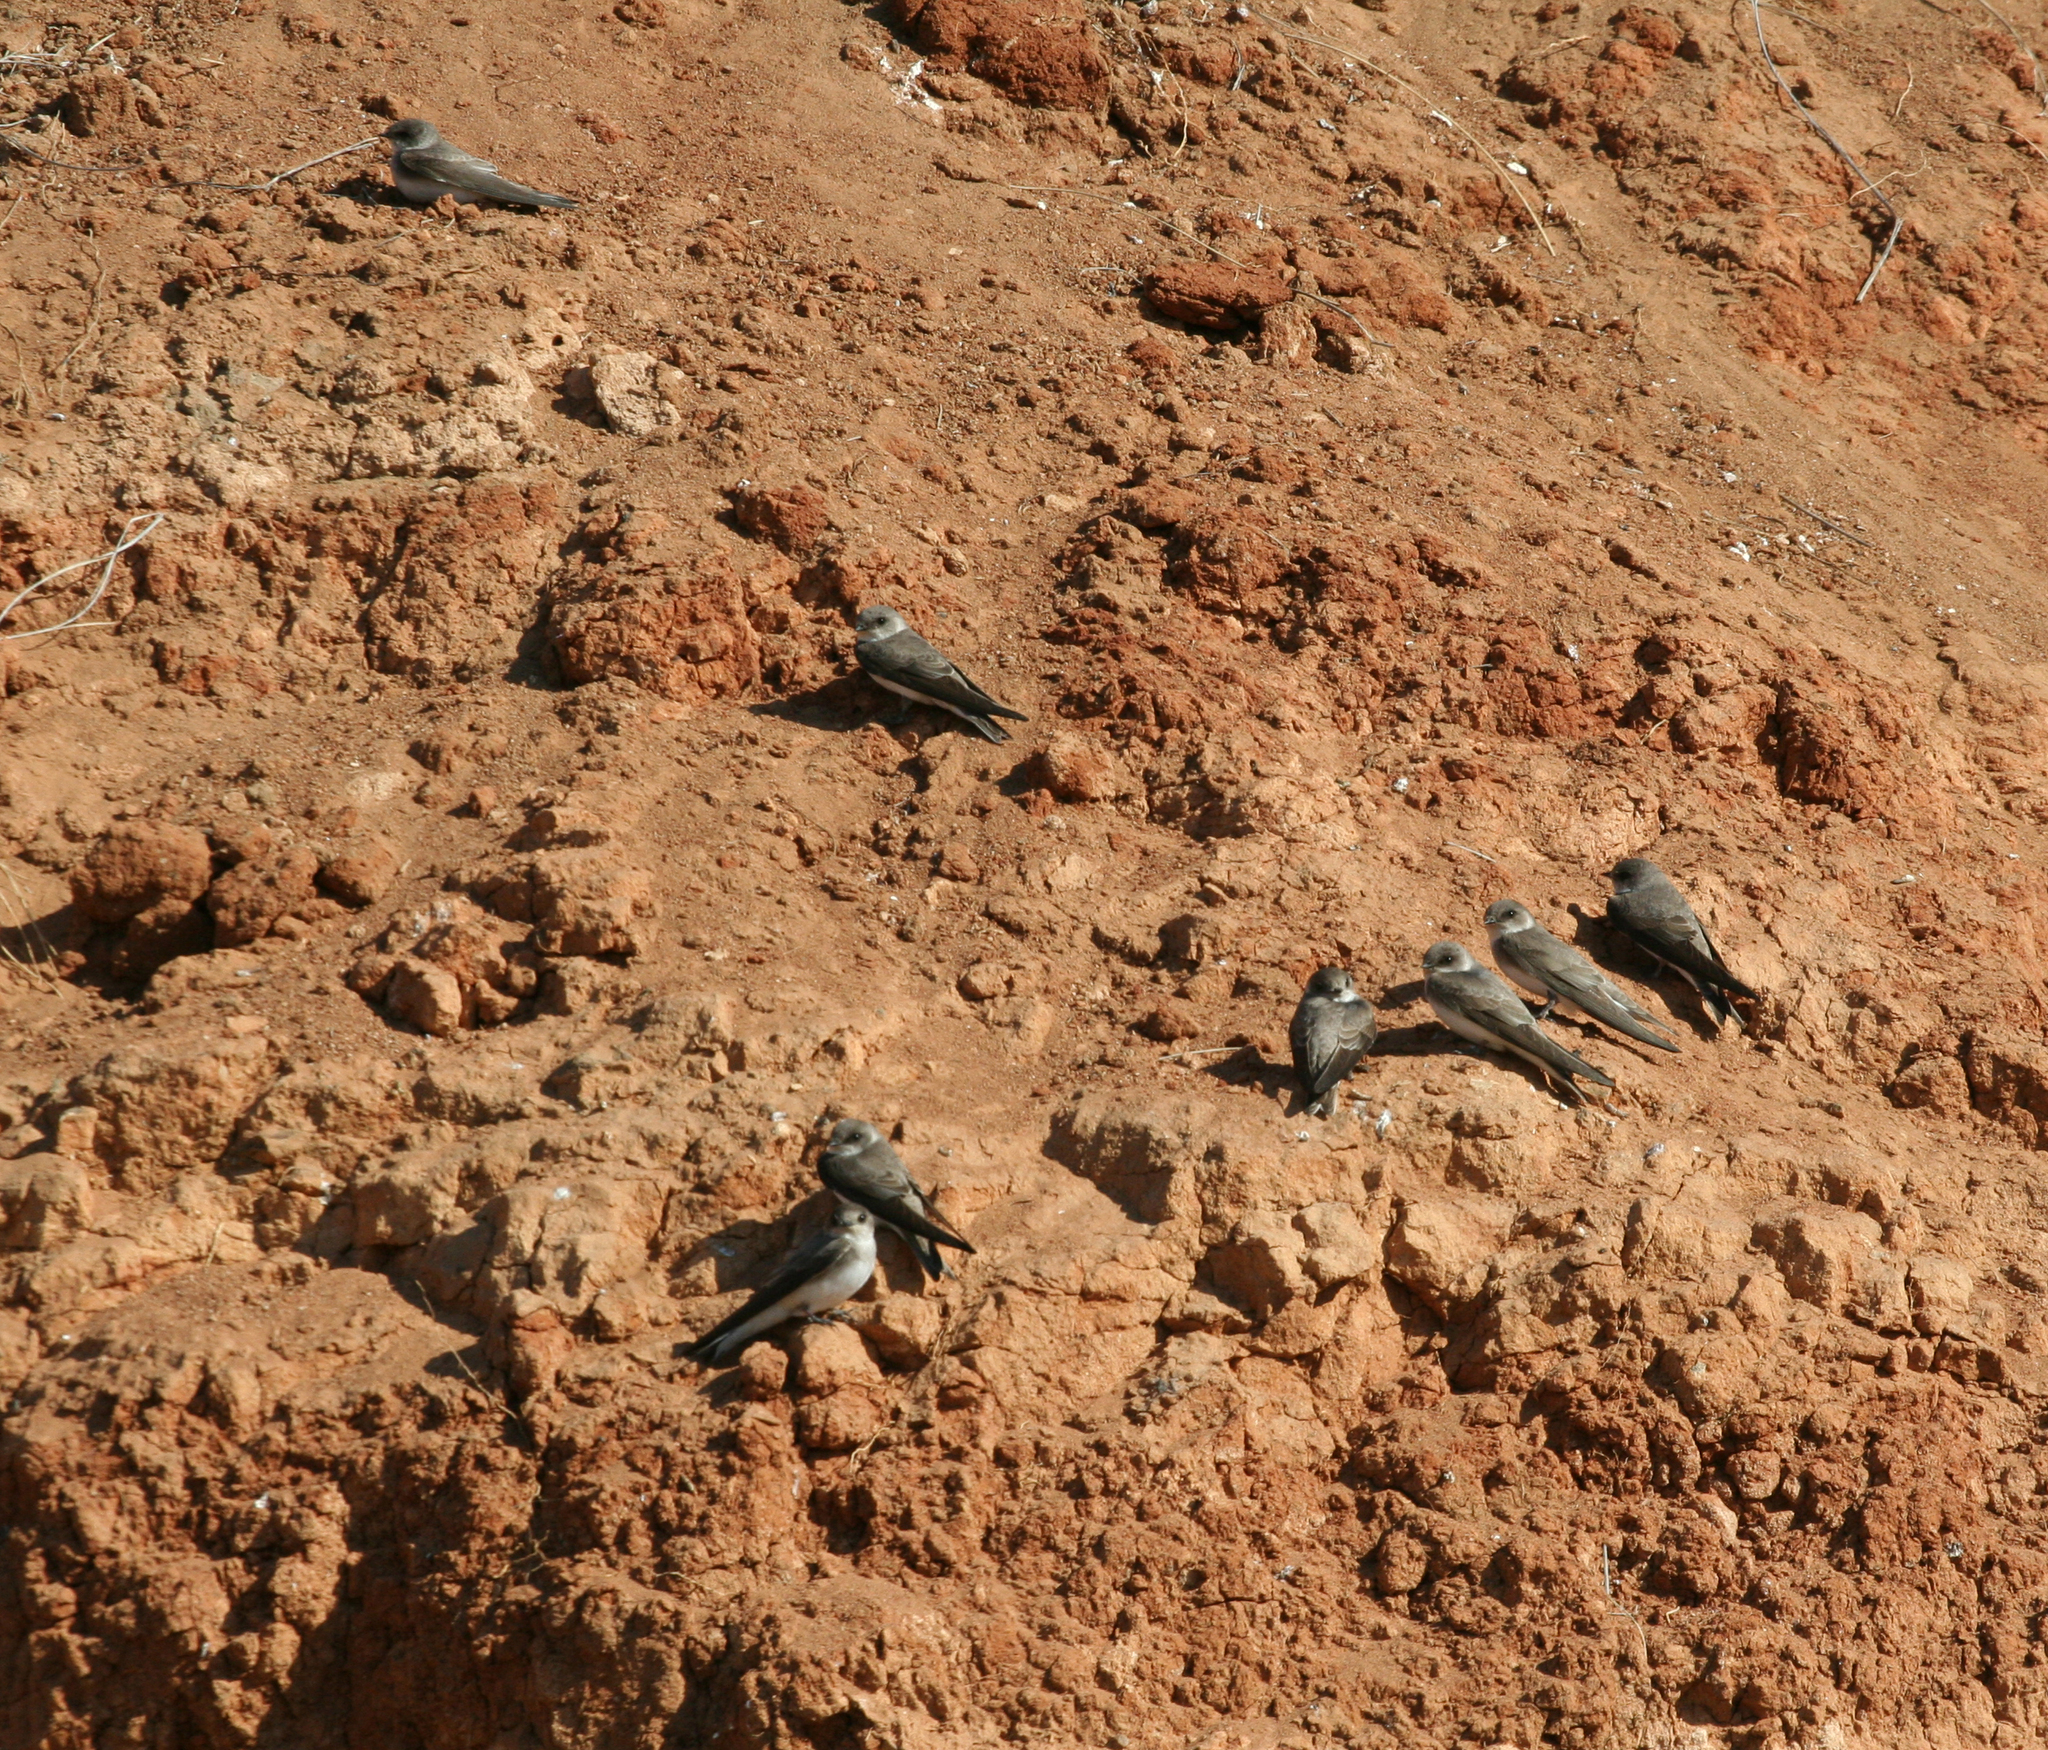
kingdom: Animalia
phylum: Chordata
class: Aves
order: Passeriformes
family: Hirundinidae
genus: Riparia
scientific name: Riparia diluta
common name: Pale martin
